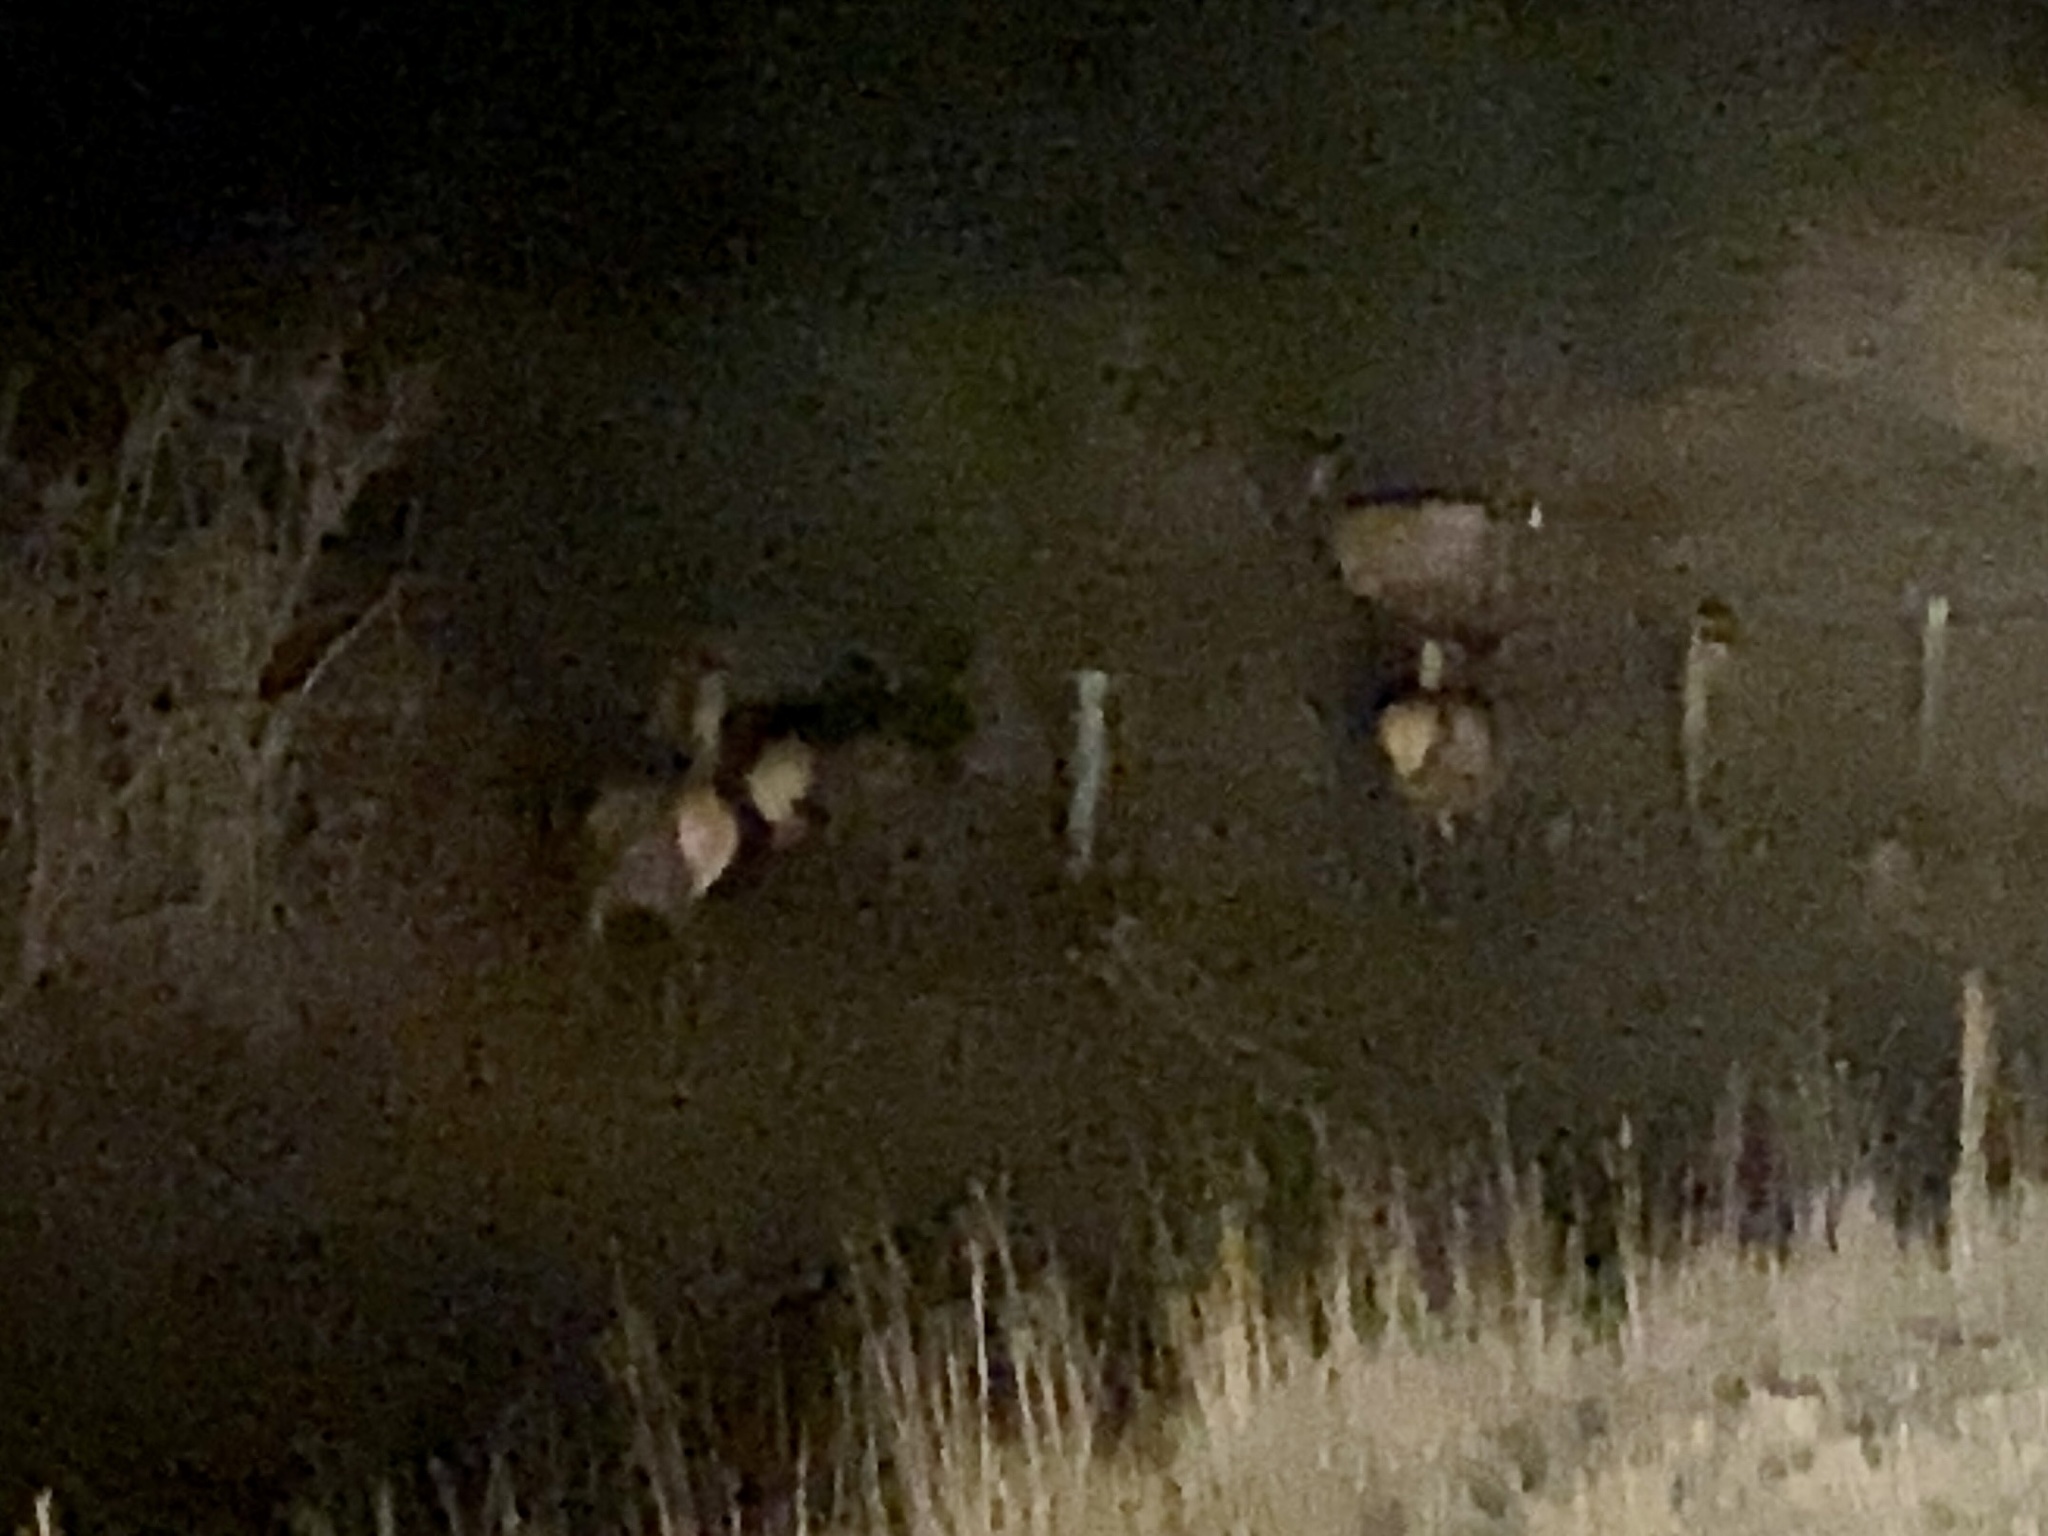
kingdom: Animalia
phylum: Chordata
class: Mammalia
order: Artiodactyla
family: Cervidae
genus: Cervus
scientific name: Cervus elaphus
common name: Red deer
